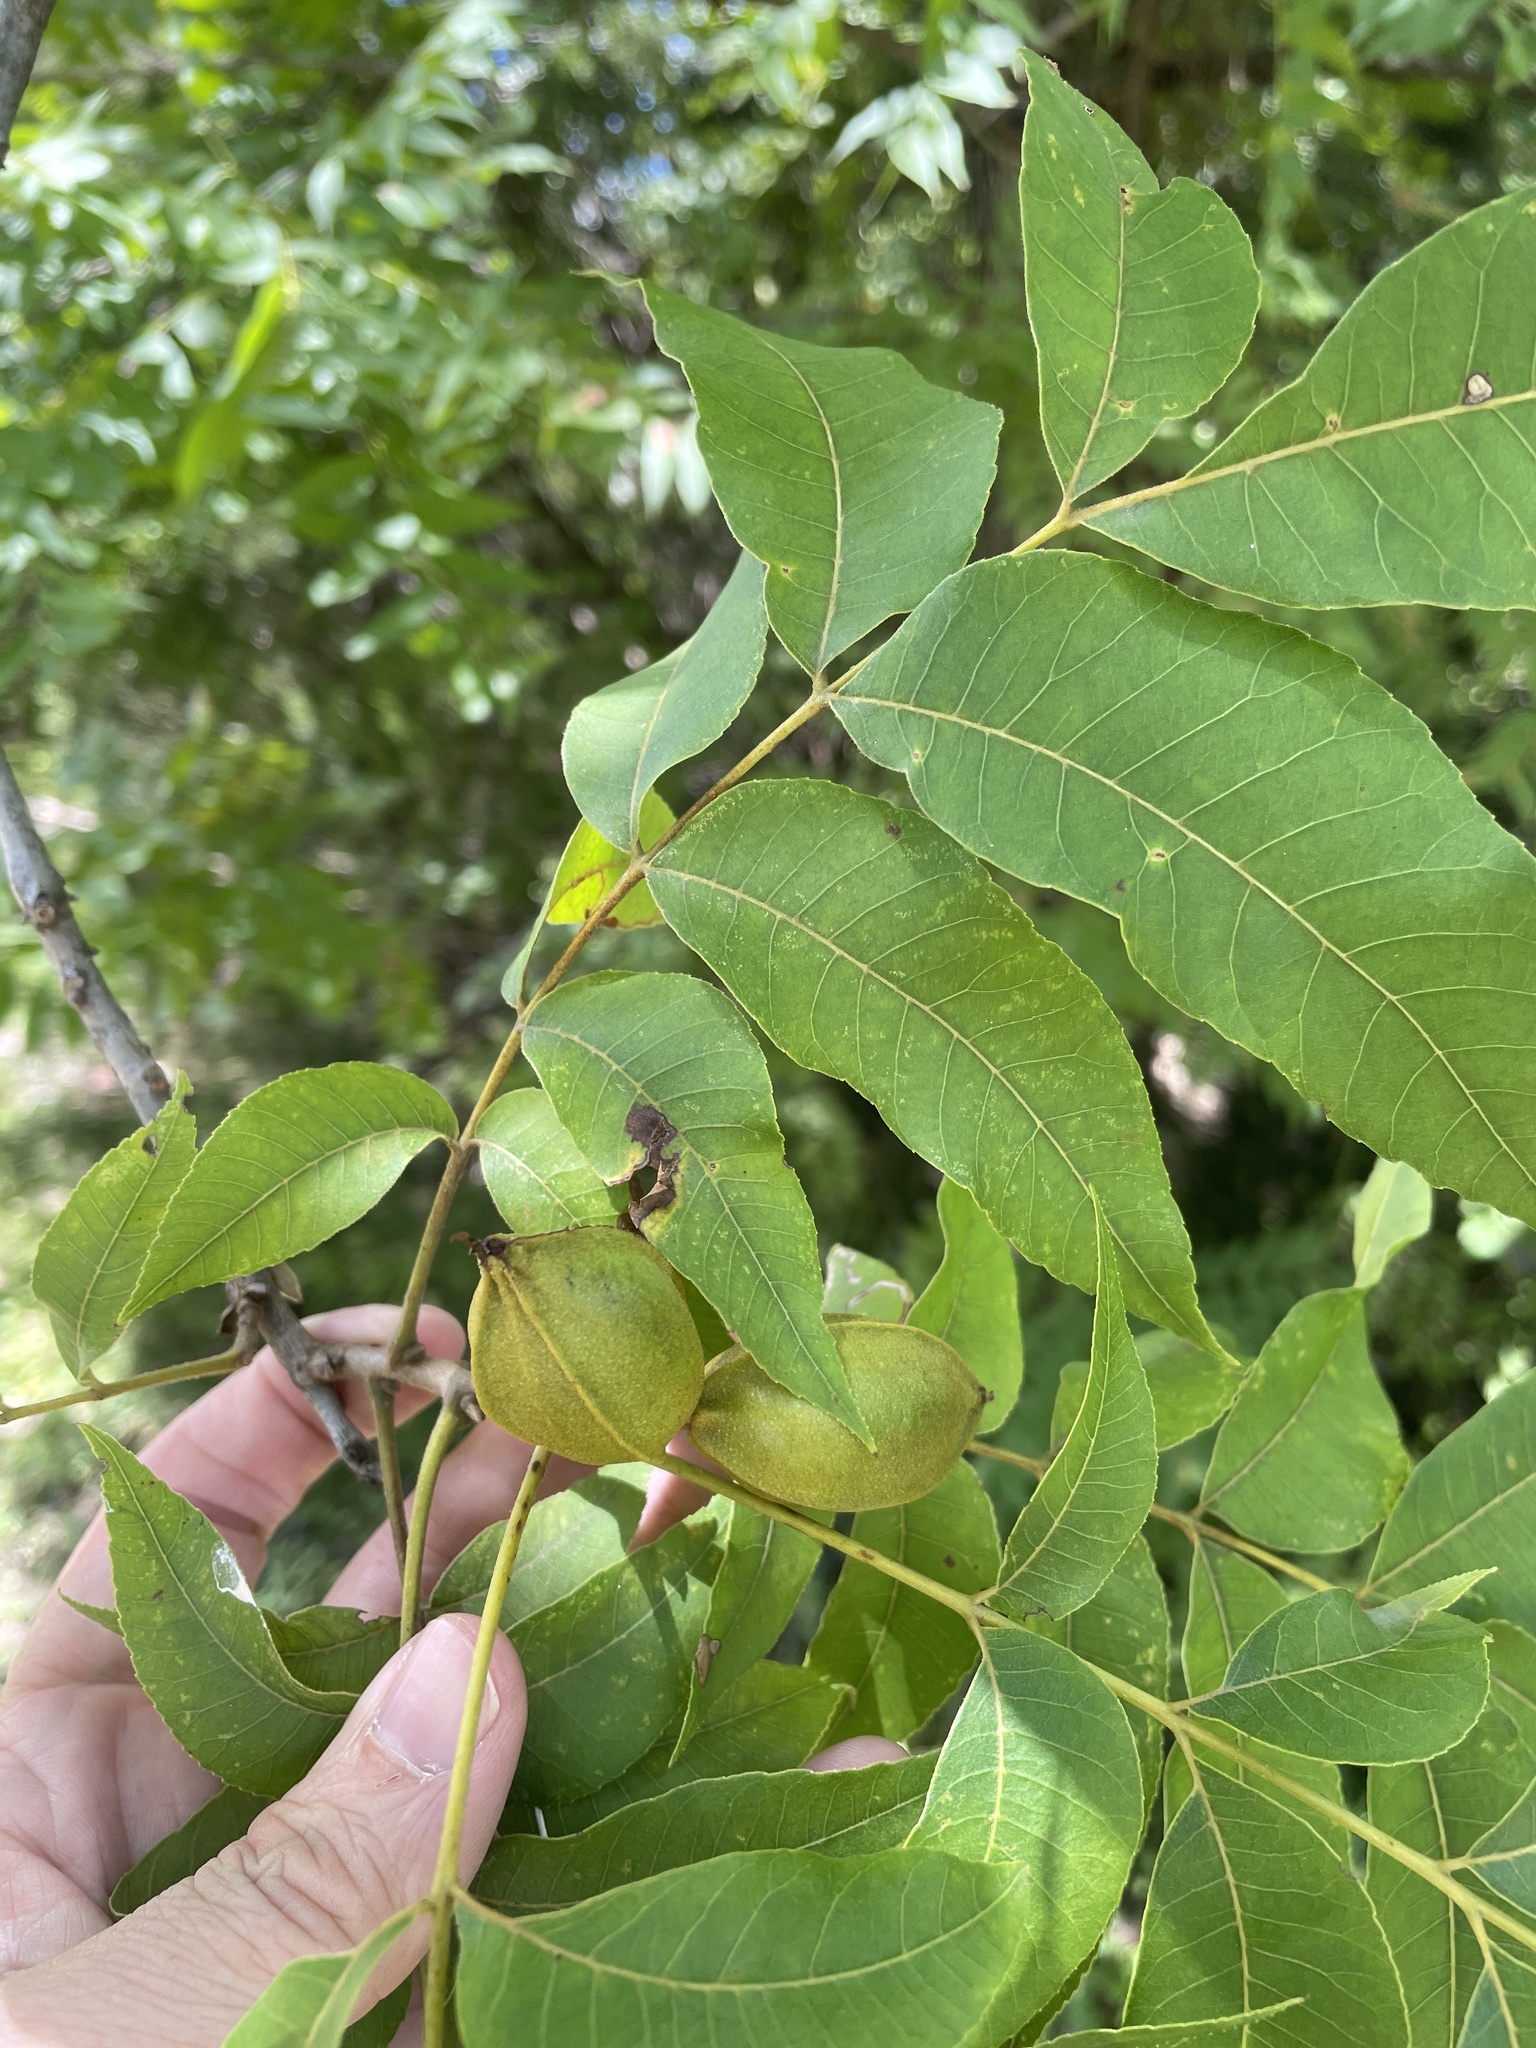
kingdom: Plantae
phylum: Tracheophyta
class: Magnoliopsida
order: Fagales
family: Juglandaceae
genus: Carya
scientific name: Carya illinoinensis
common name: Pecan
